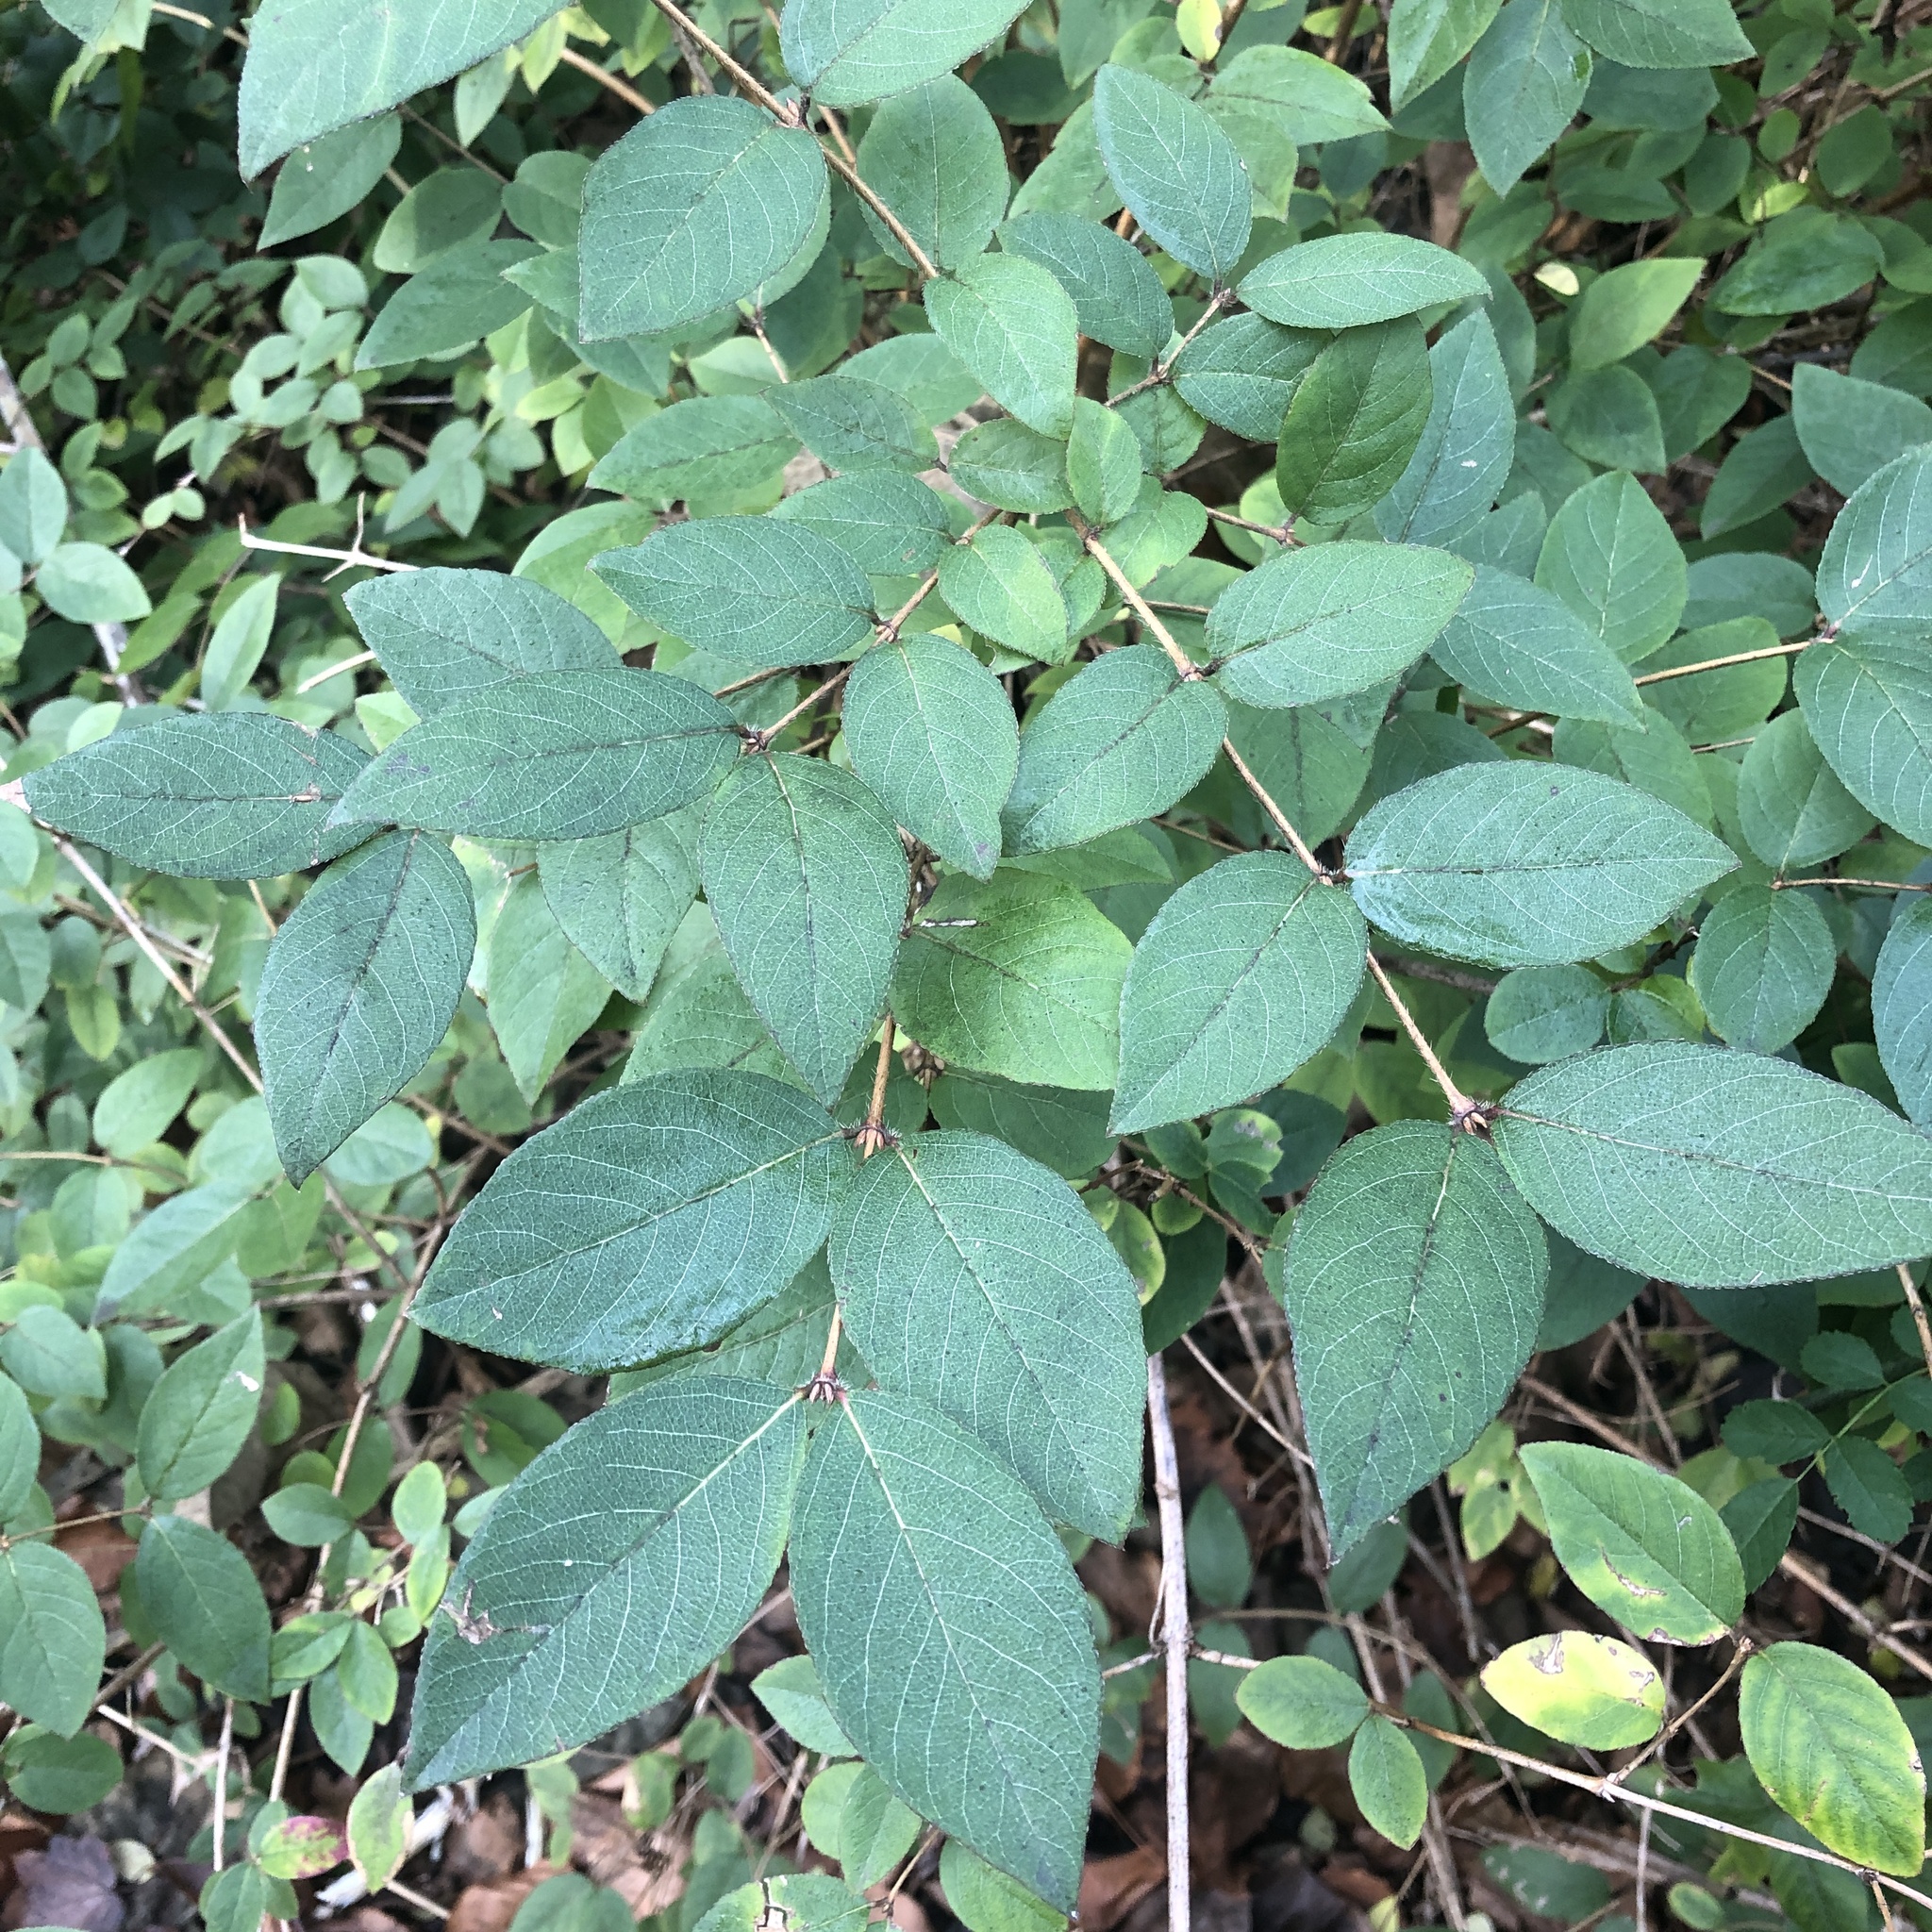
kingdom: Plantae
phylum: Tracheophyta
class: Magnoliopsida
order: Dipsacales
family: Caprifoliaceae
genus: Lonicera
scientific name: Lonicera fragrantissima
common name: Fragrant honeysuckle
